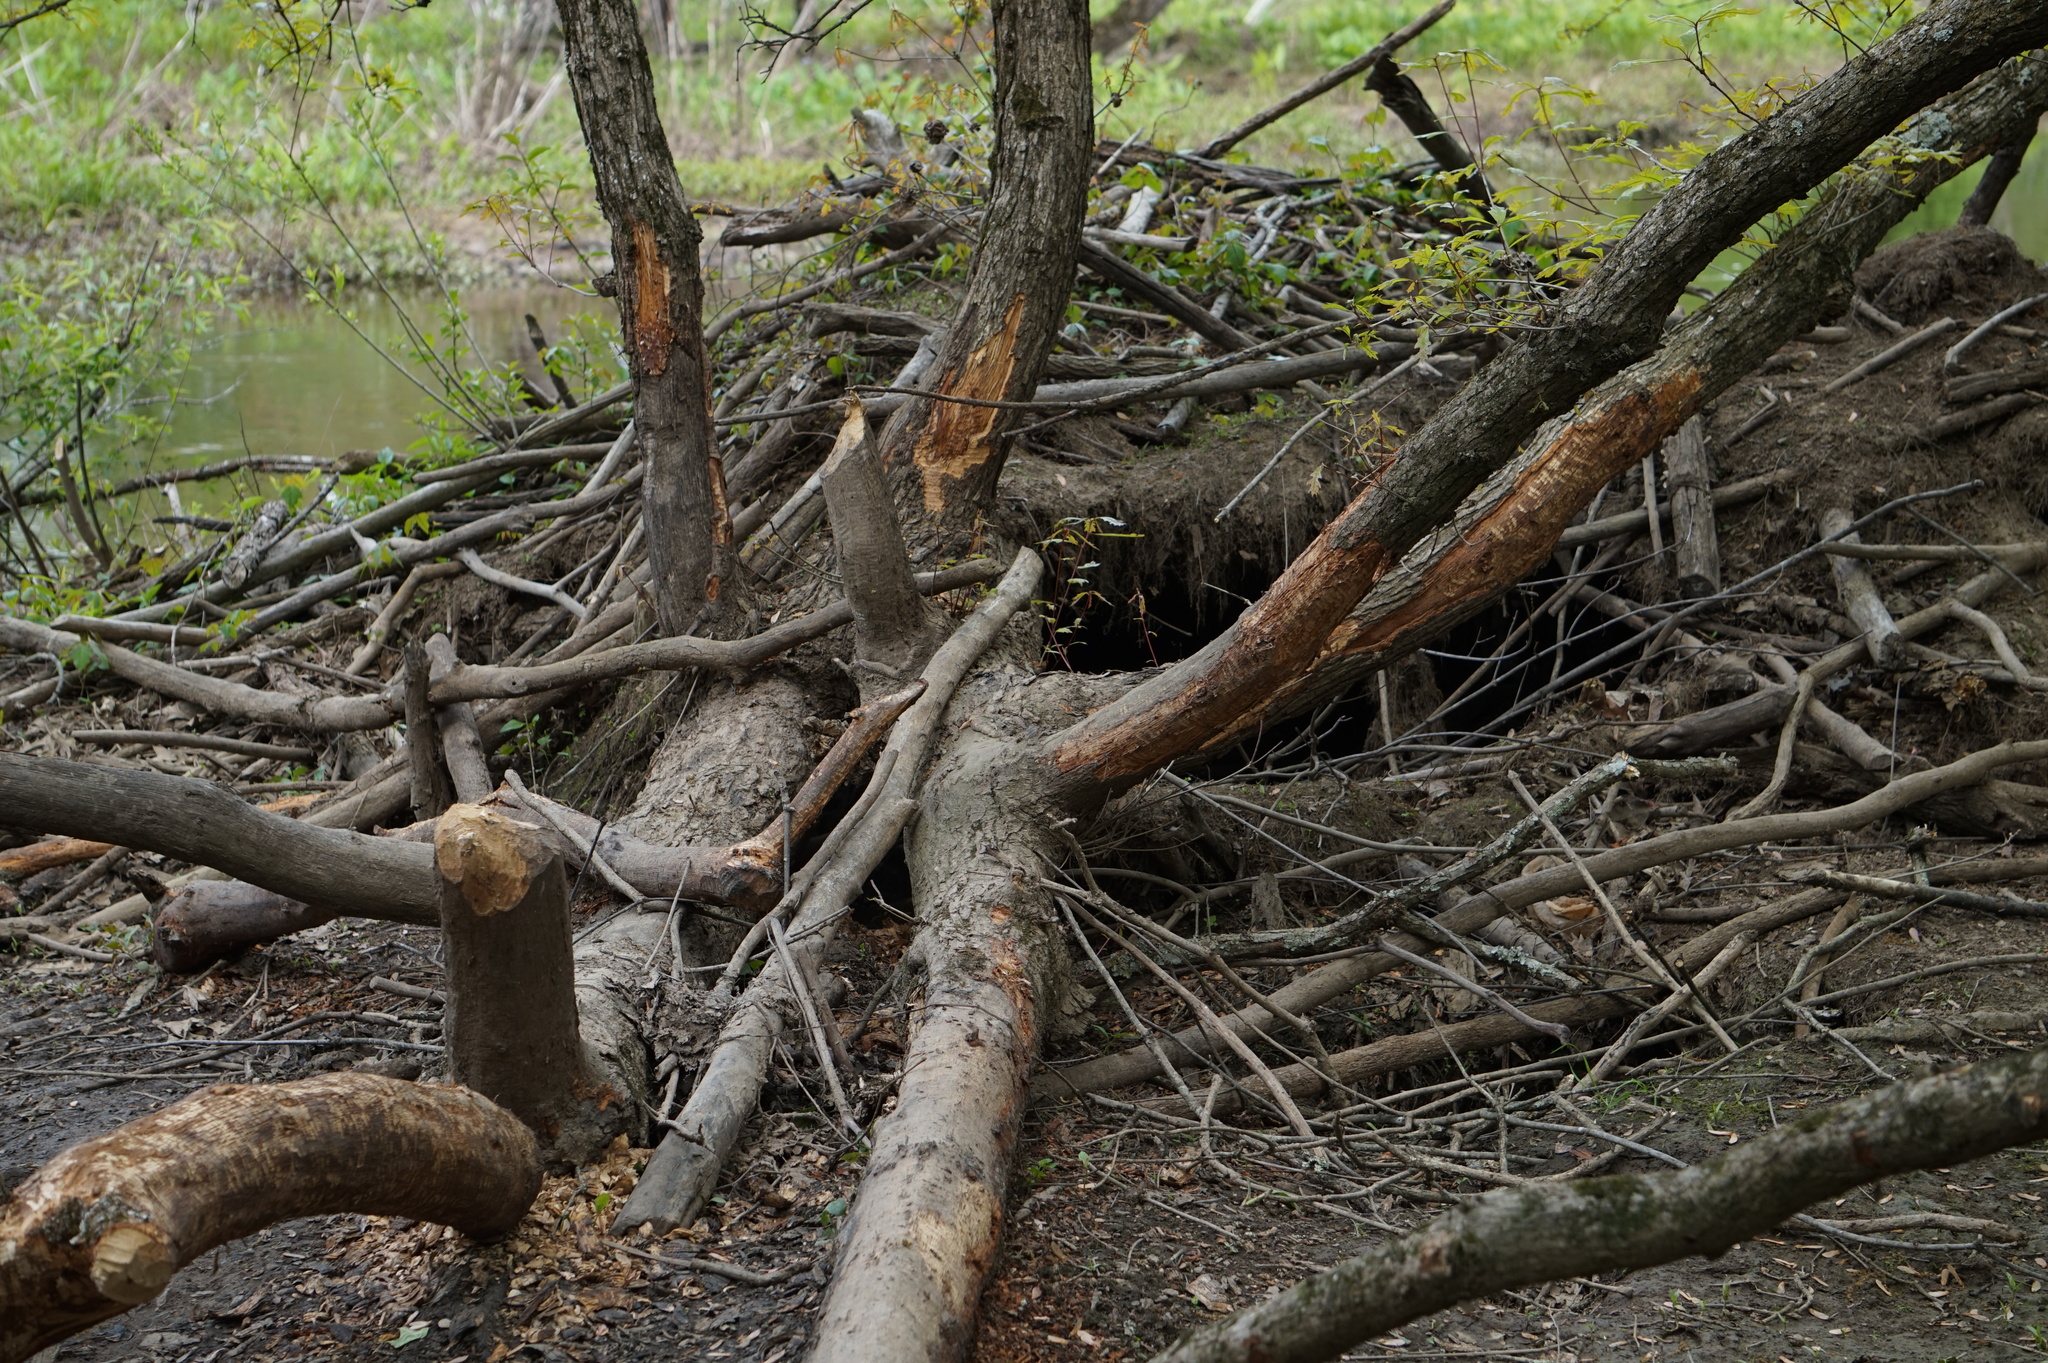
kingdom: Animalia
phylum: Chordata
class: Mammalia
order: Rodentia
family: Castoridae
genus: Castor
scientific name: Castor canadensis
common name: American beaver
